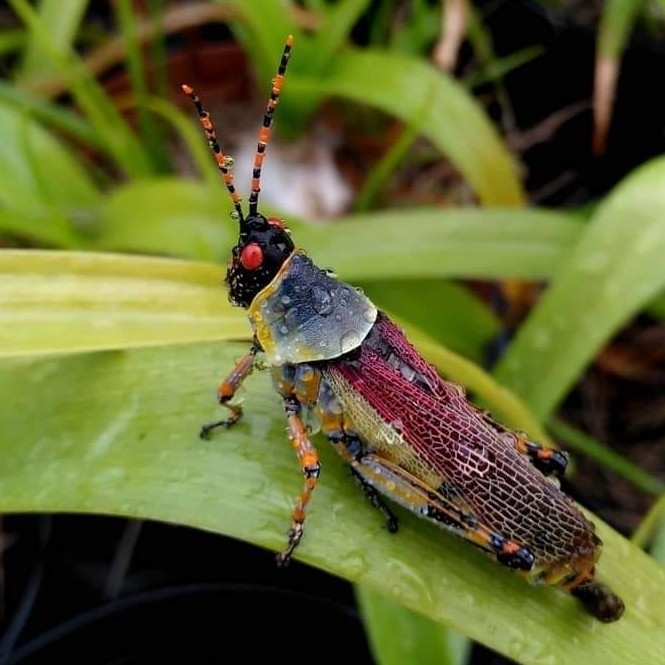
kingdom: Animalia
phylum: Arthropoda
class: Insecta
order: Orthoptera
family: Pyrgomorphidae
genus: Zonocerus
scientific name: Zonocerus elegans
